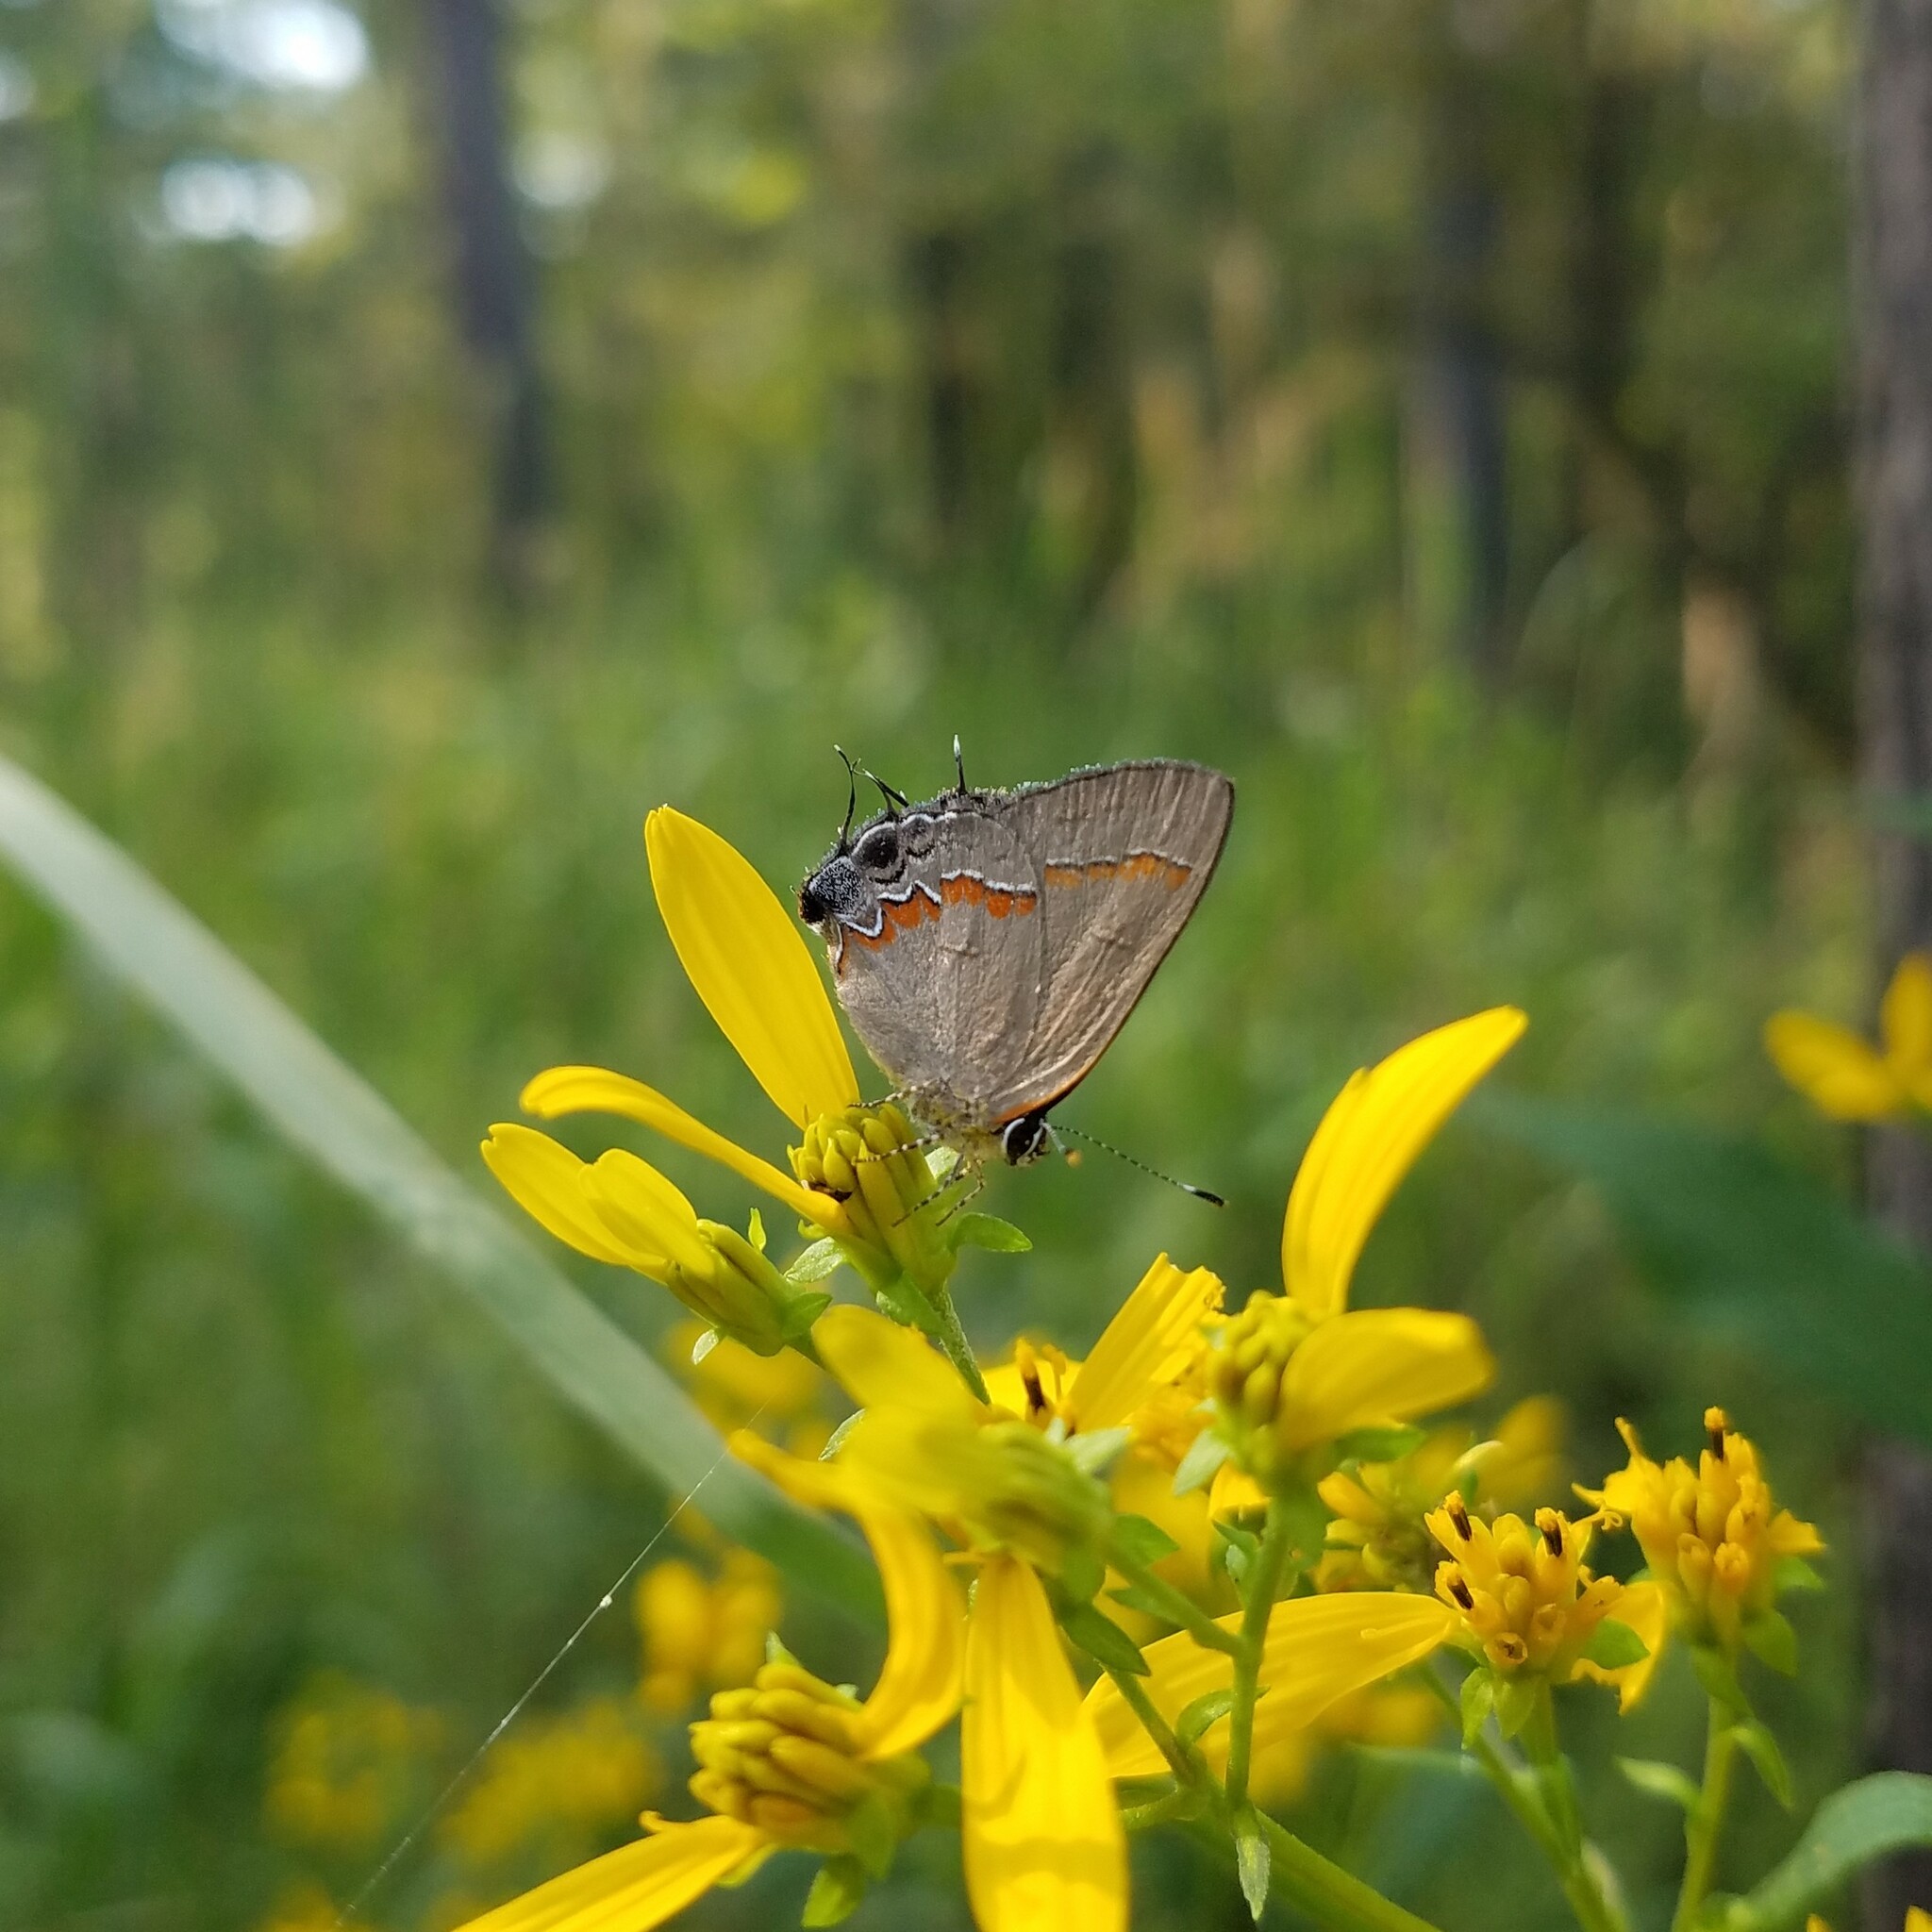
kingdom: Animalia
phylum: Arthropoda
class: Insecta
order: Lepidoptera
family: Lycaenidae
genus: Calycopis
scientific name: Calycopis cecrops
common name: Red-banded hairstreak
